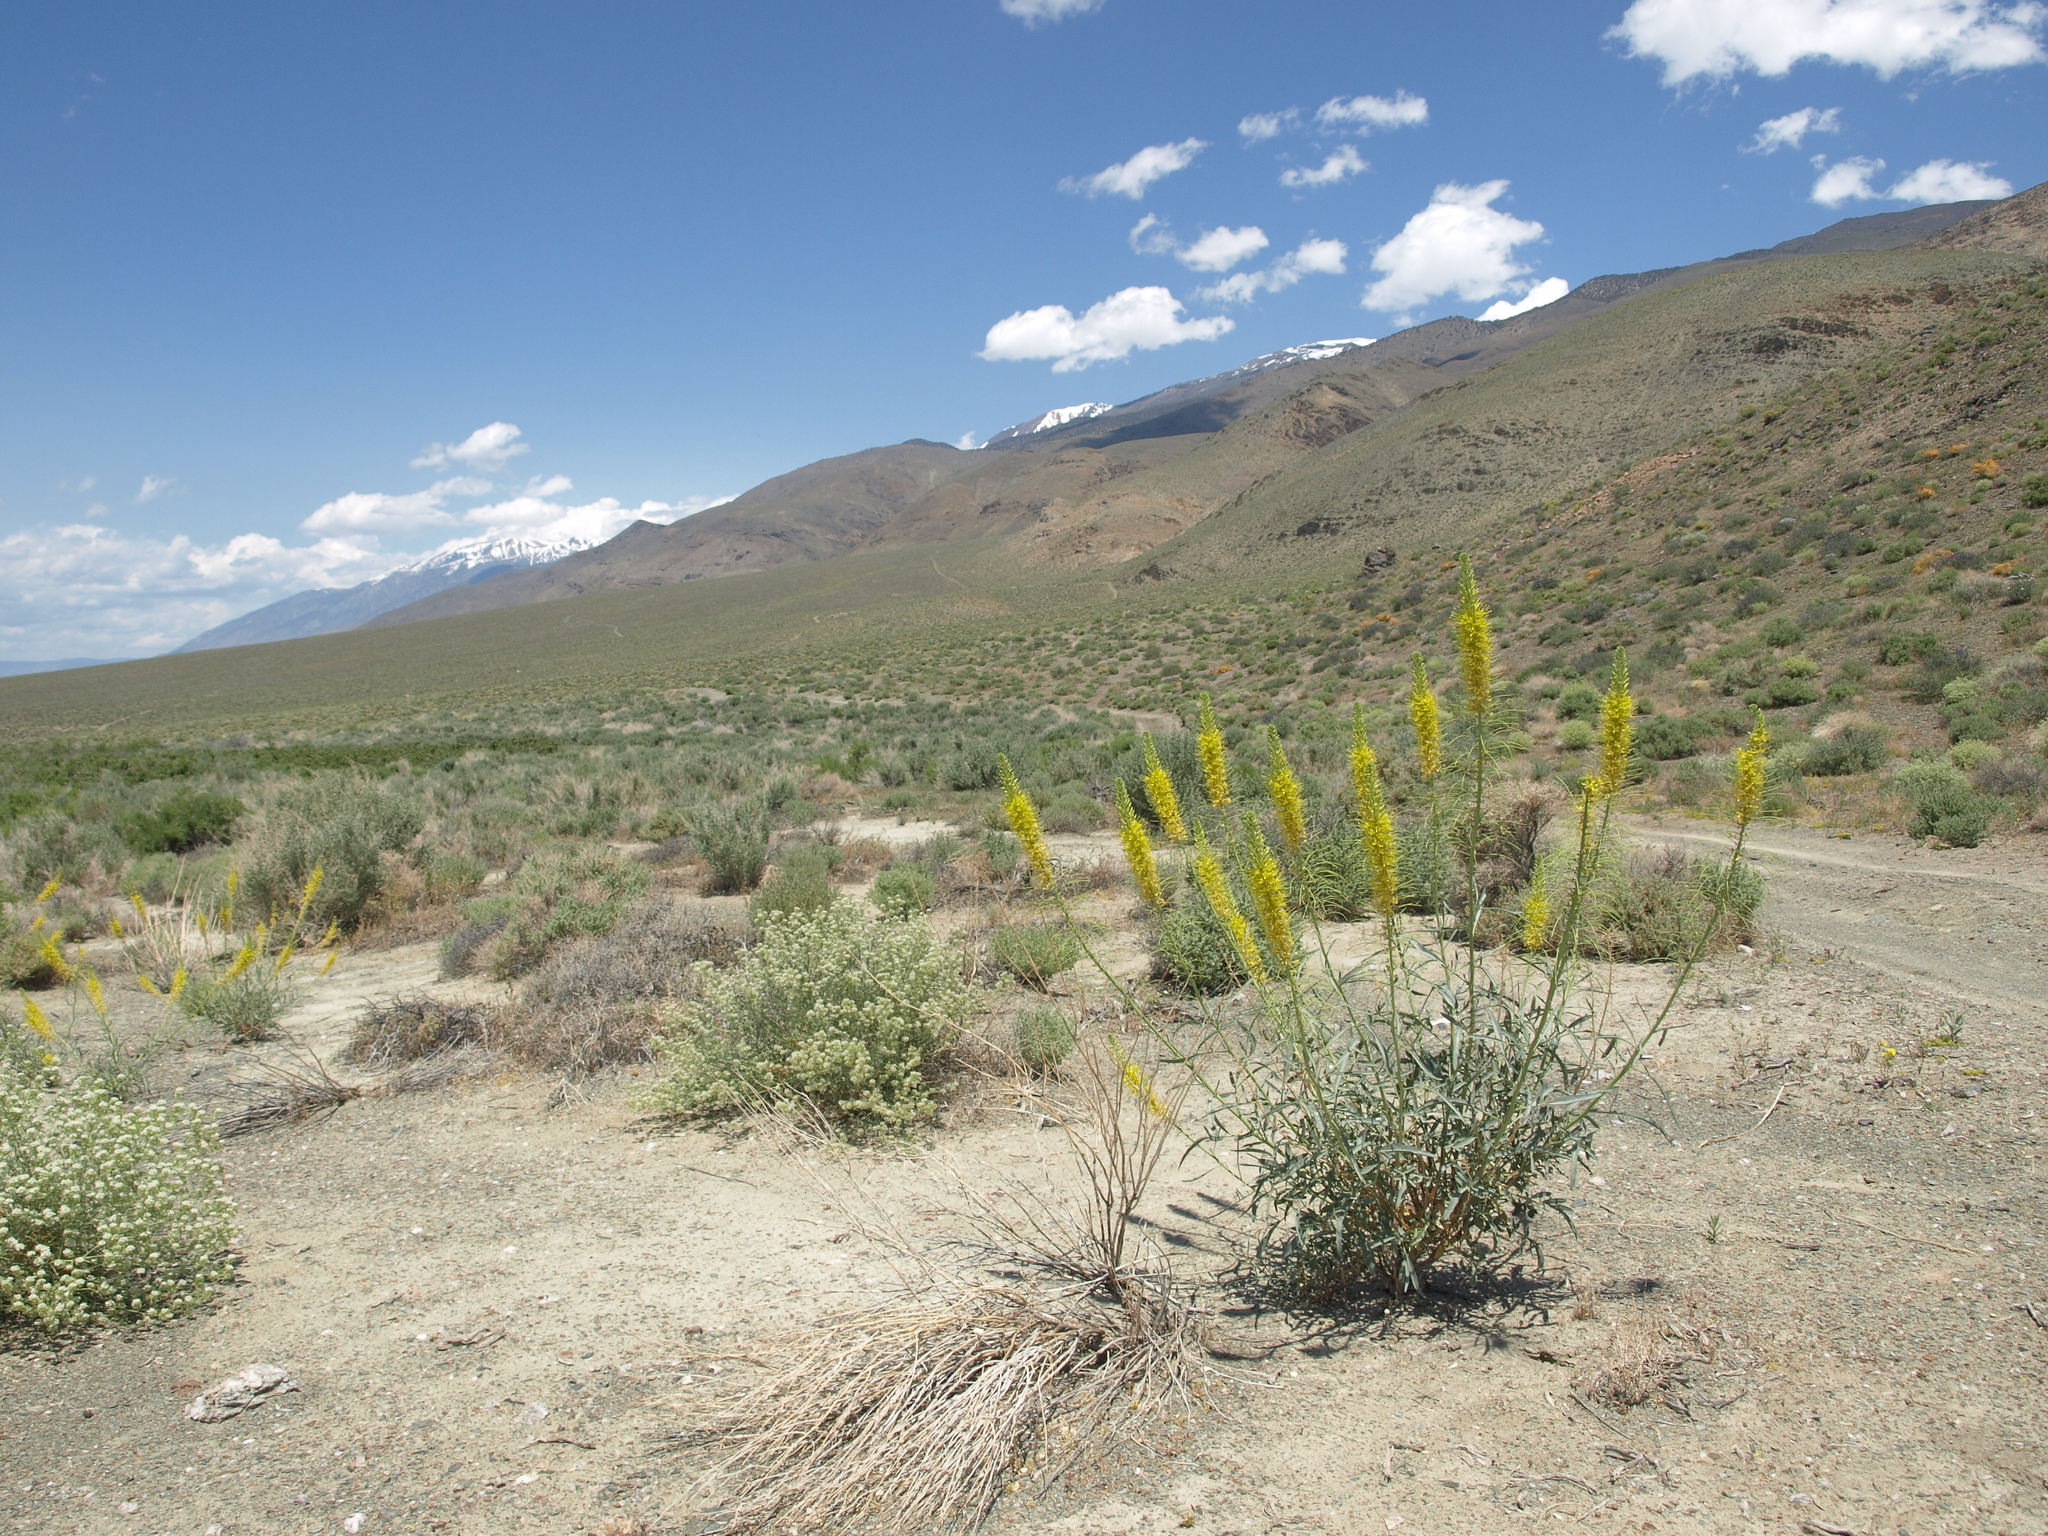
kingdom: Plantae
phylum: Tracheophyta
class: Magnoliopsida
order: Brassicales
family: Brassicaceae
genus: Stanleya
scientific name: Stanleya pinnata
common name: Prince's-plume
